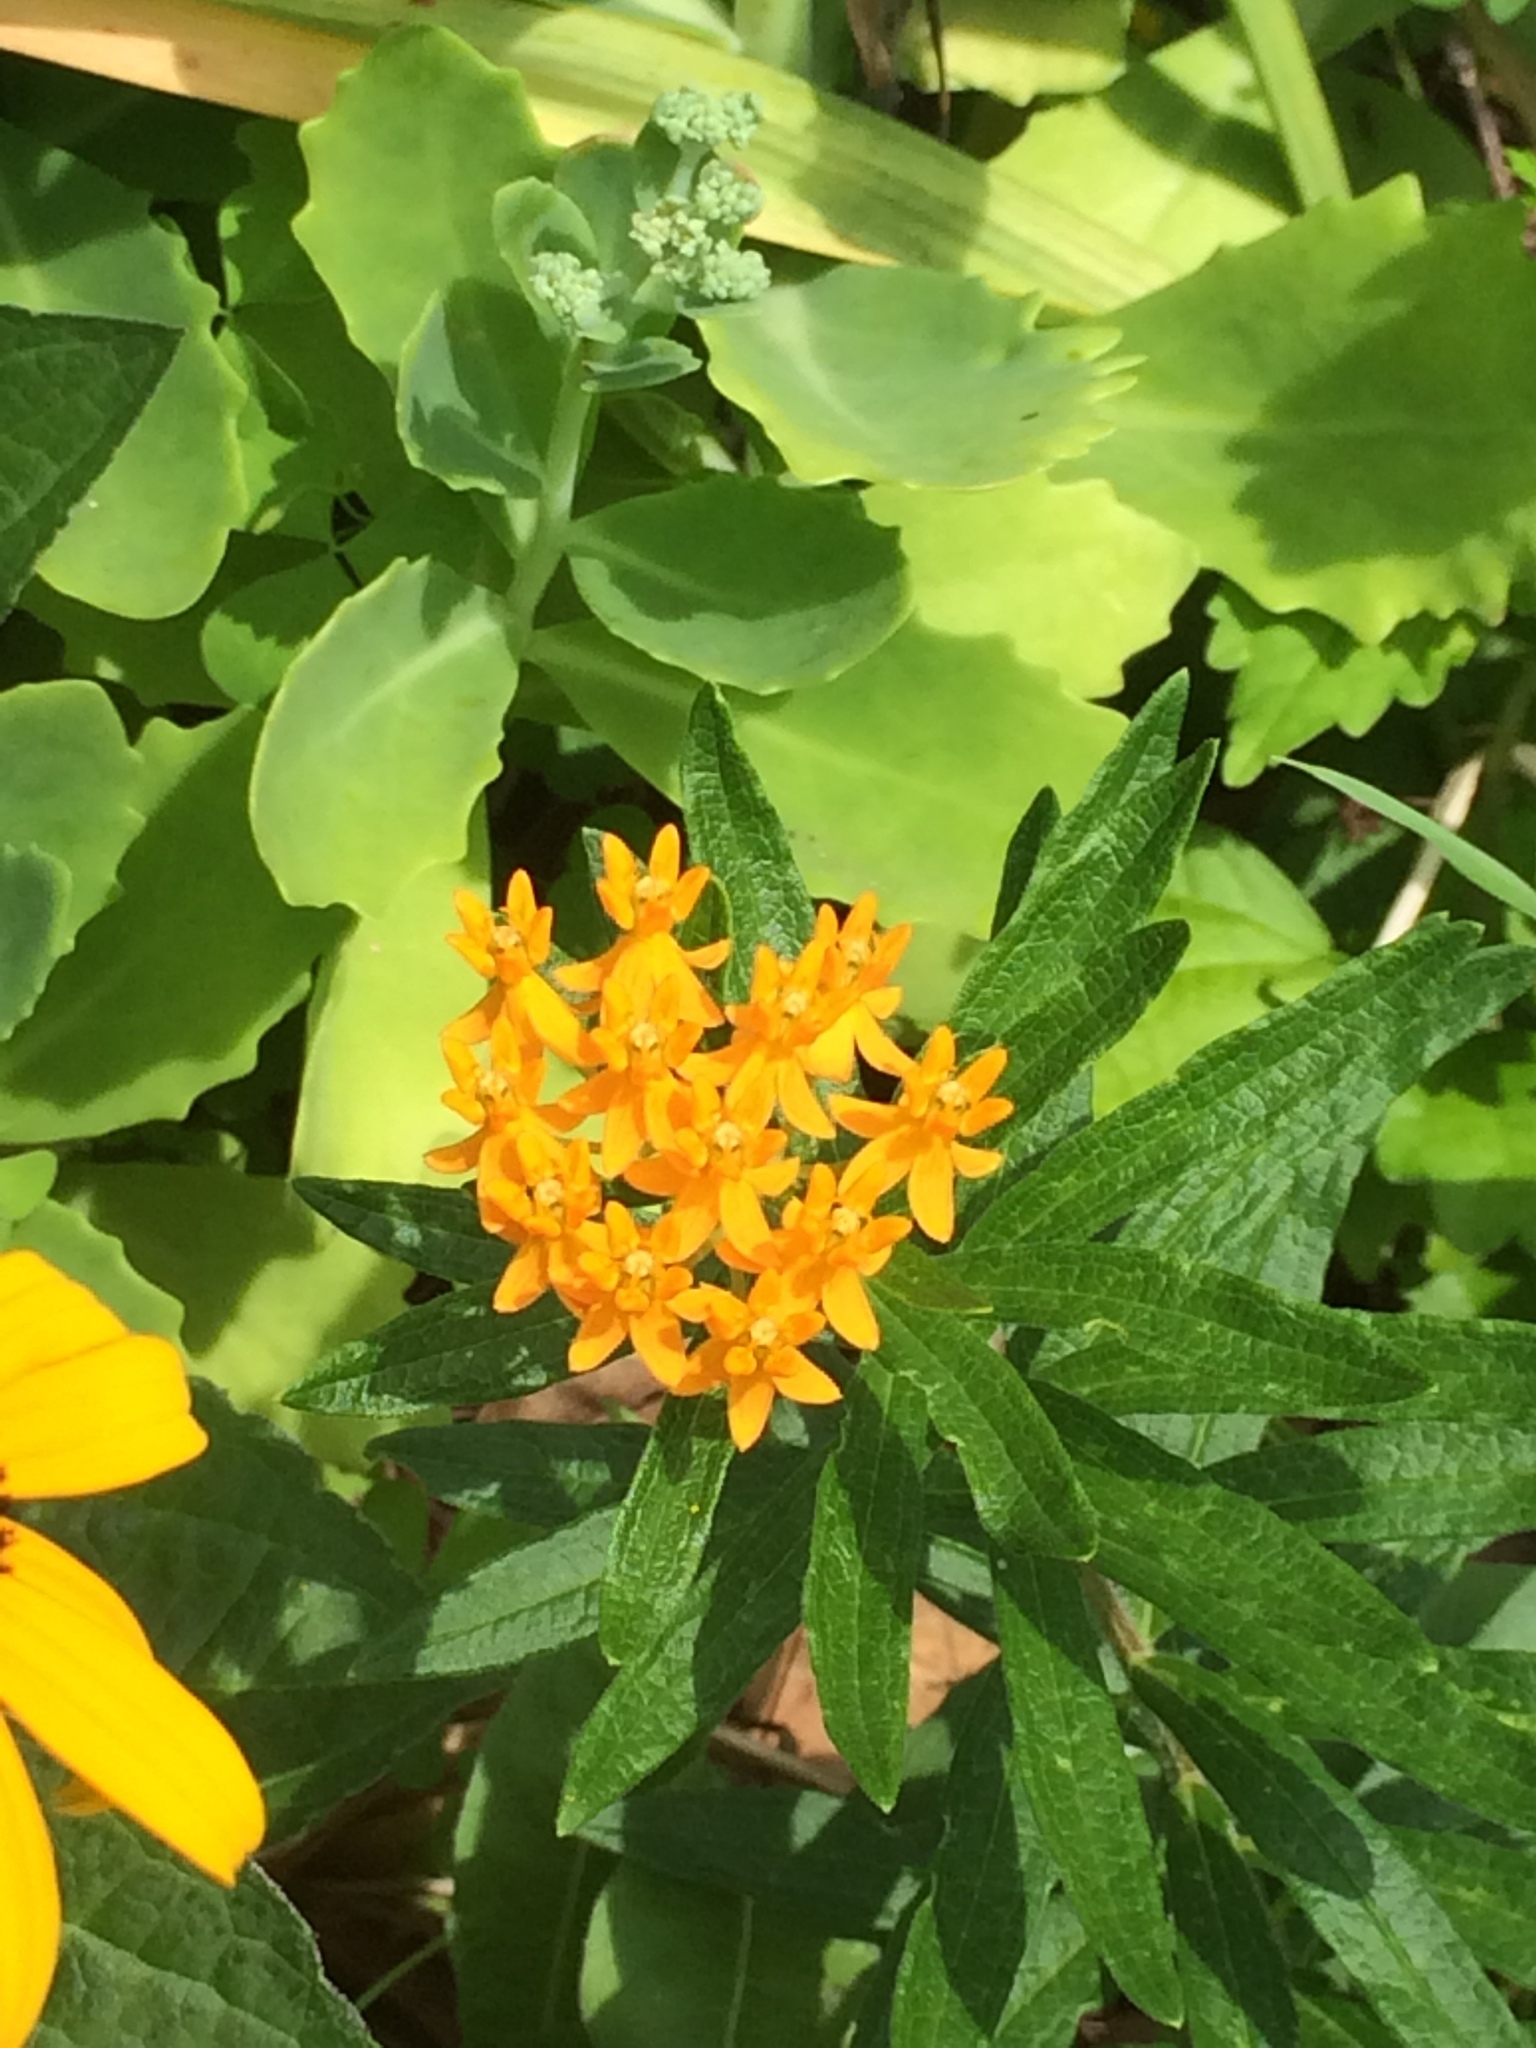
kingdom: Plantae
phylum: Tracheophyta
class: Magnoliopsida
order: Gentianales
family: Apocynaceae
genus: Asclepias
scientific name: Asclepias tuberosa
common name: Butterfly milkweed
